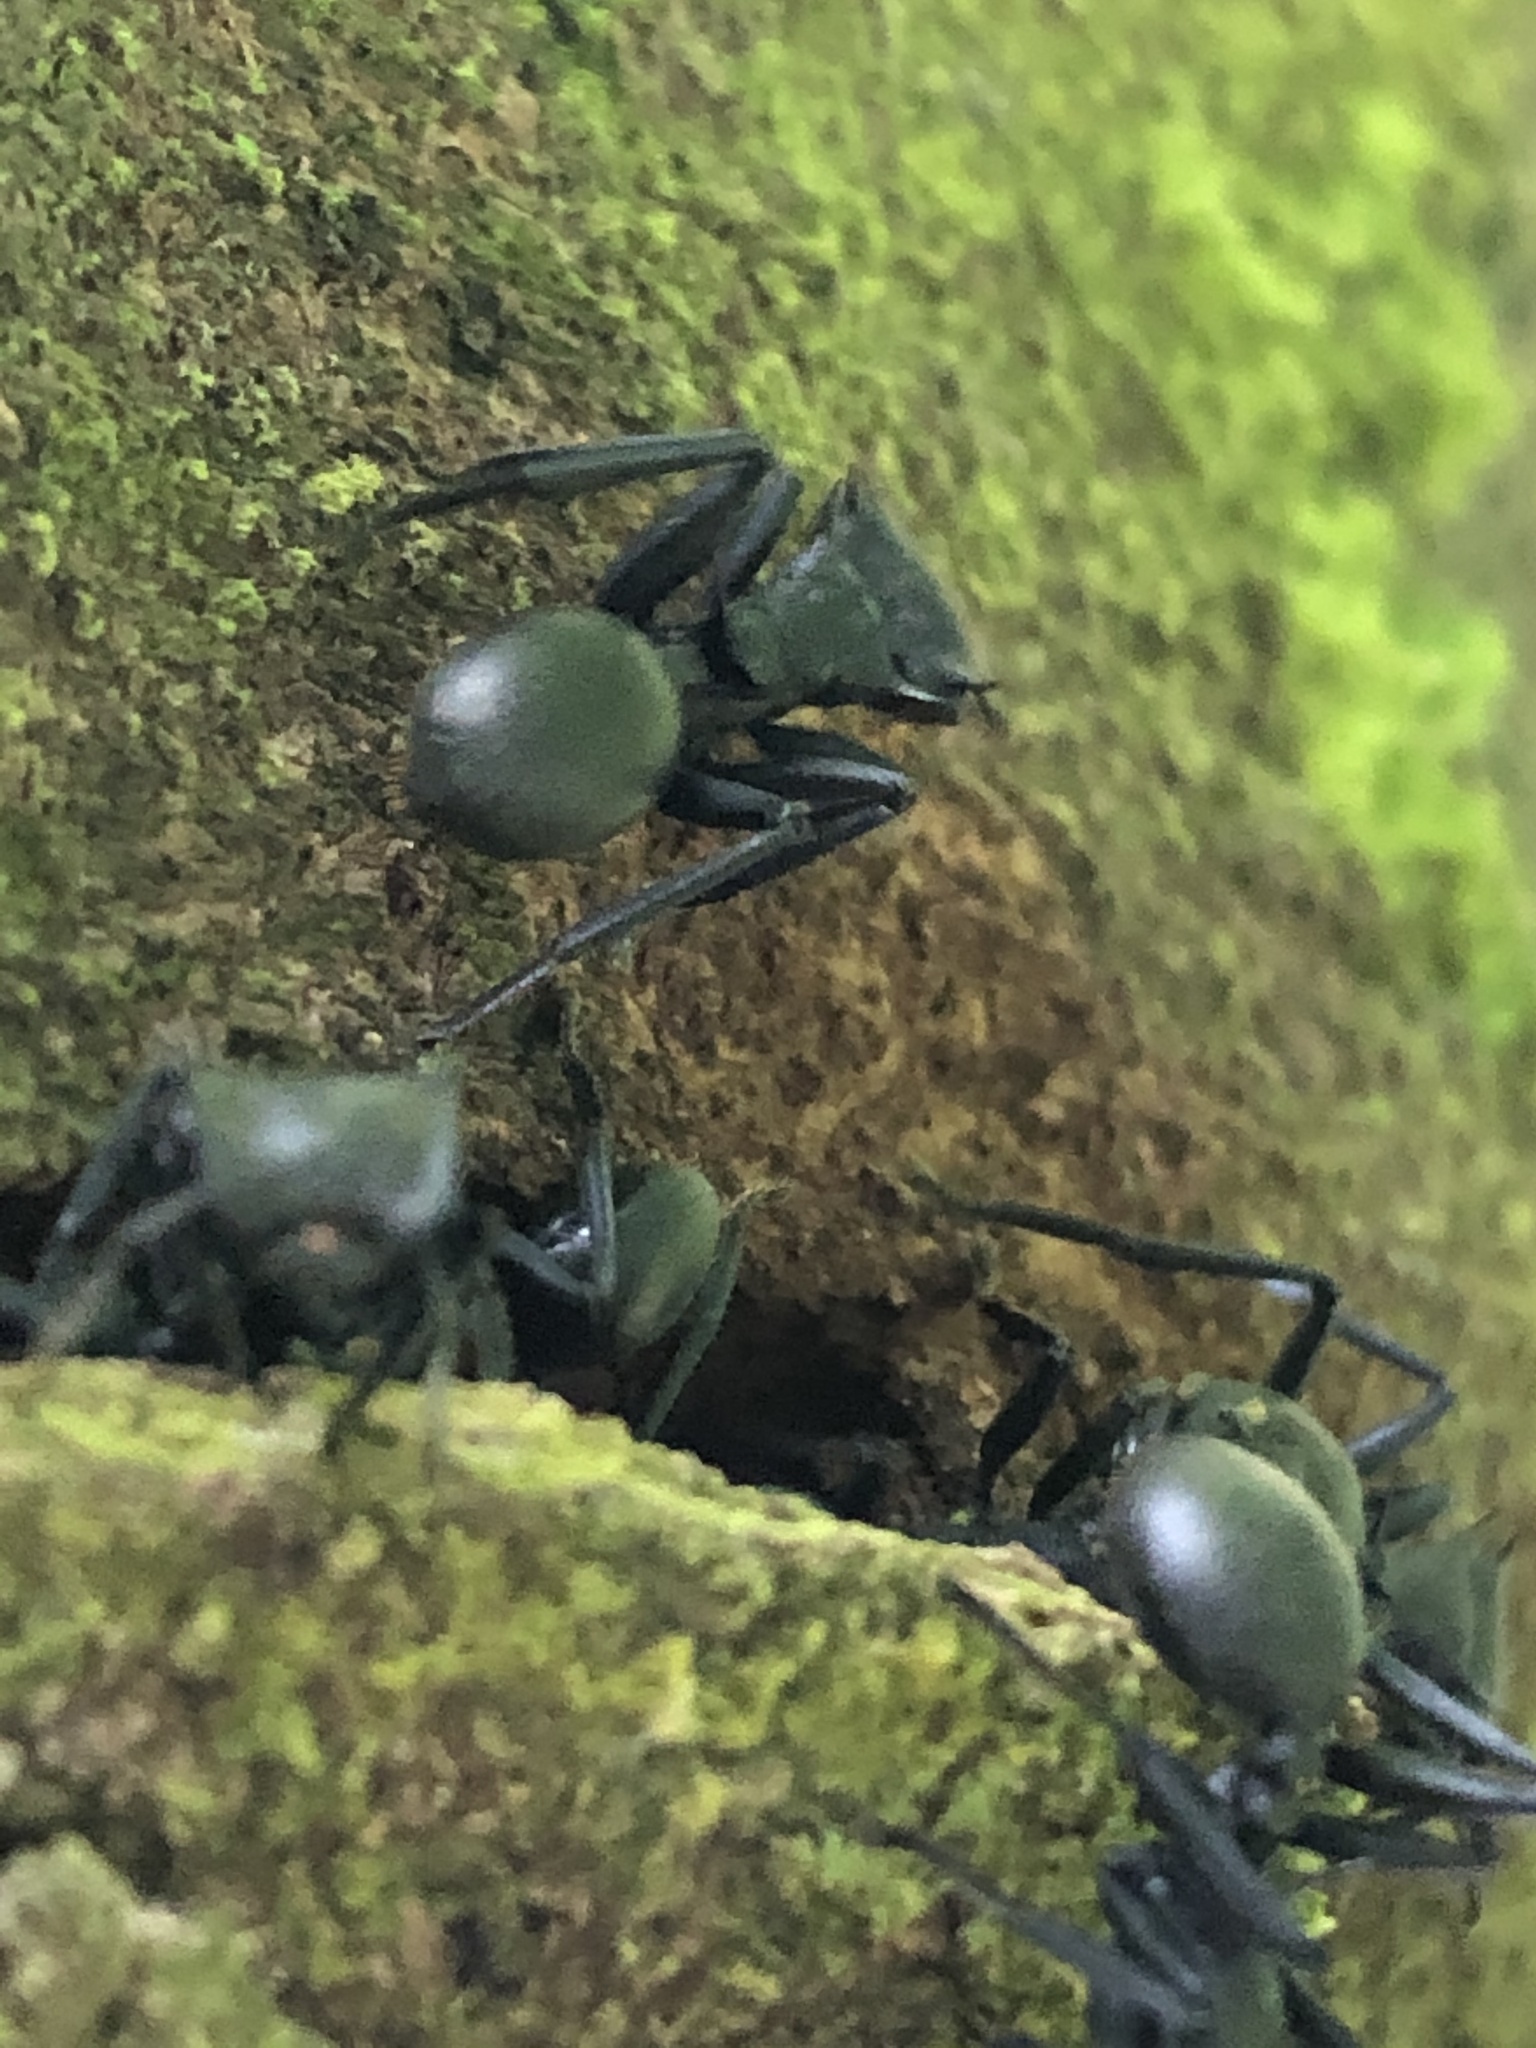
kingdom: Animalia
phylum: Arthropoda
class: Insecta
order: Hymenoptera
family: Formicidae
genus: Cephalotes
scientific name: Cephalotes atratus
